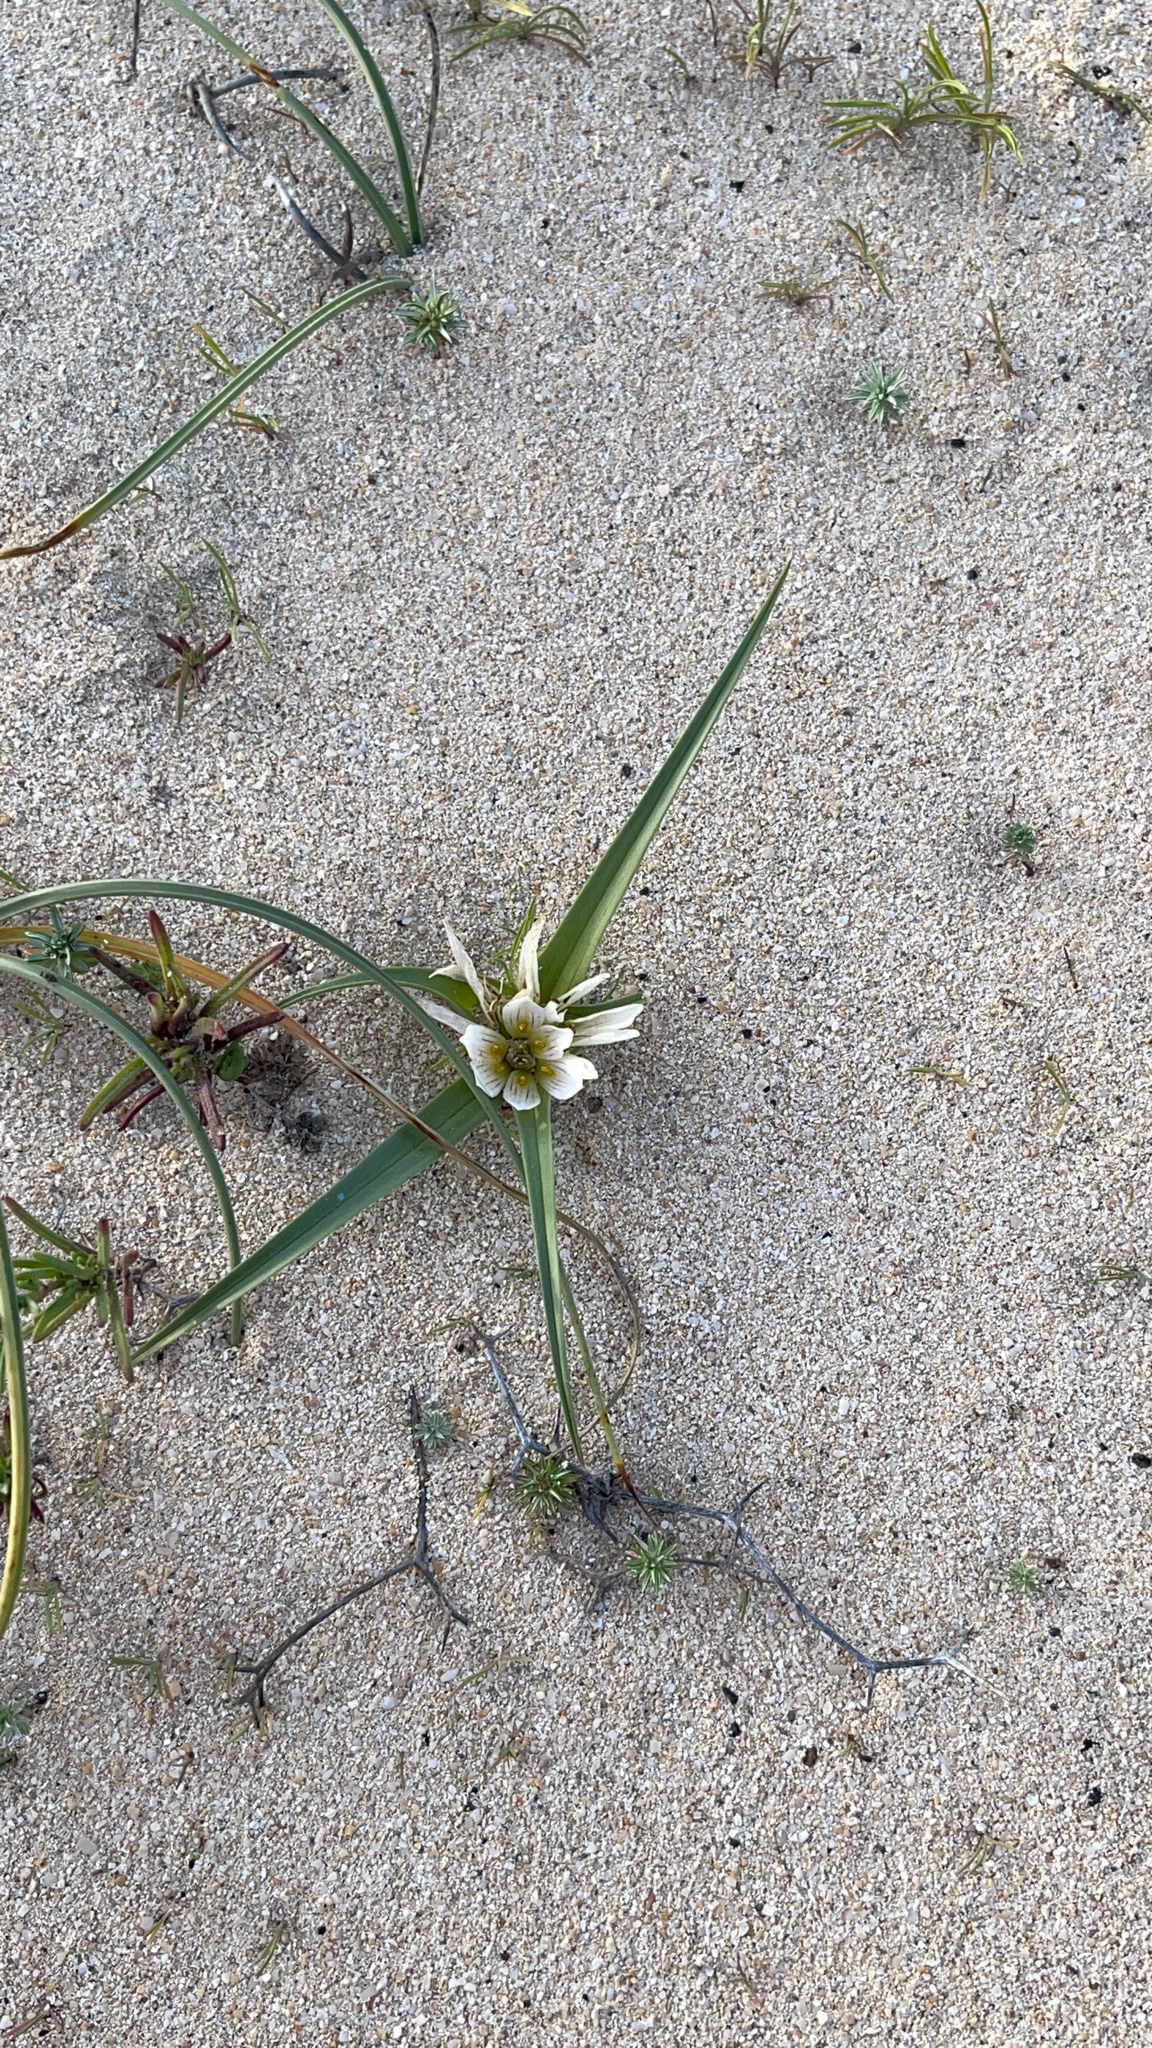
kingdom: Plantae
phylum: Tracheophyta
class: Liliopsida
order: Liliales
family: Colchicaceae
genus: Colchicum
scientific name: Colchicum psammophilum
